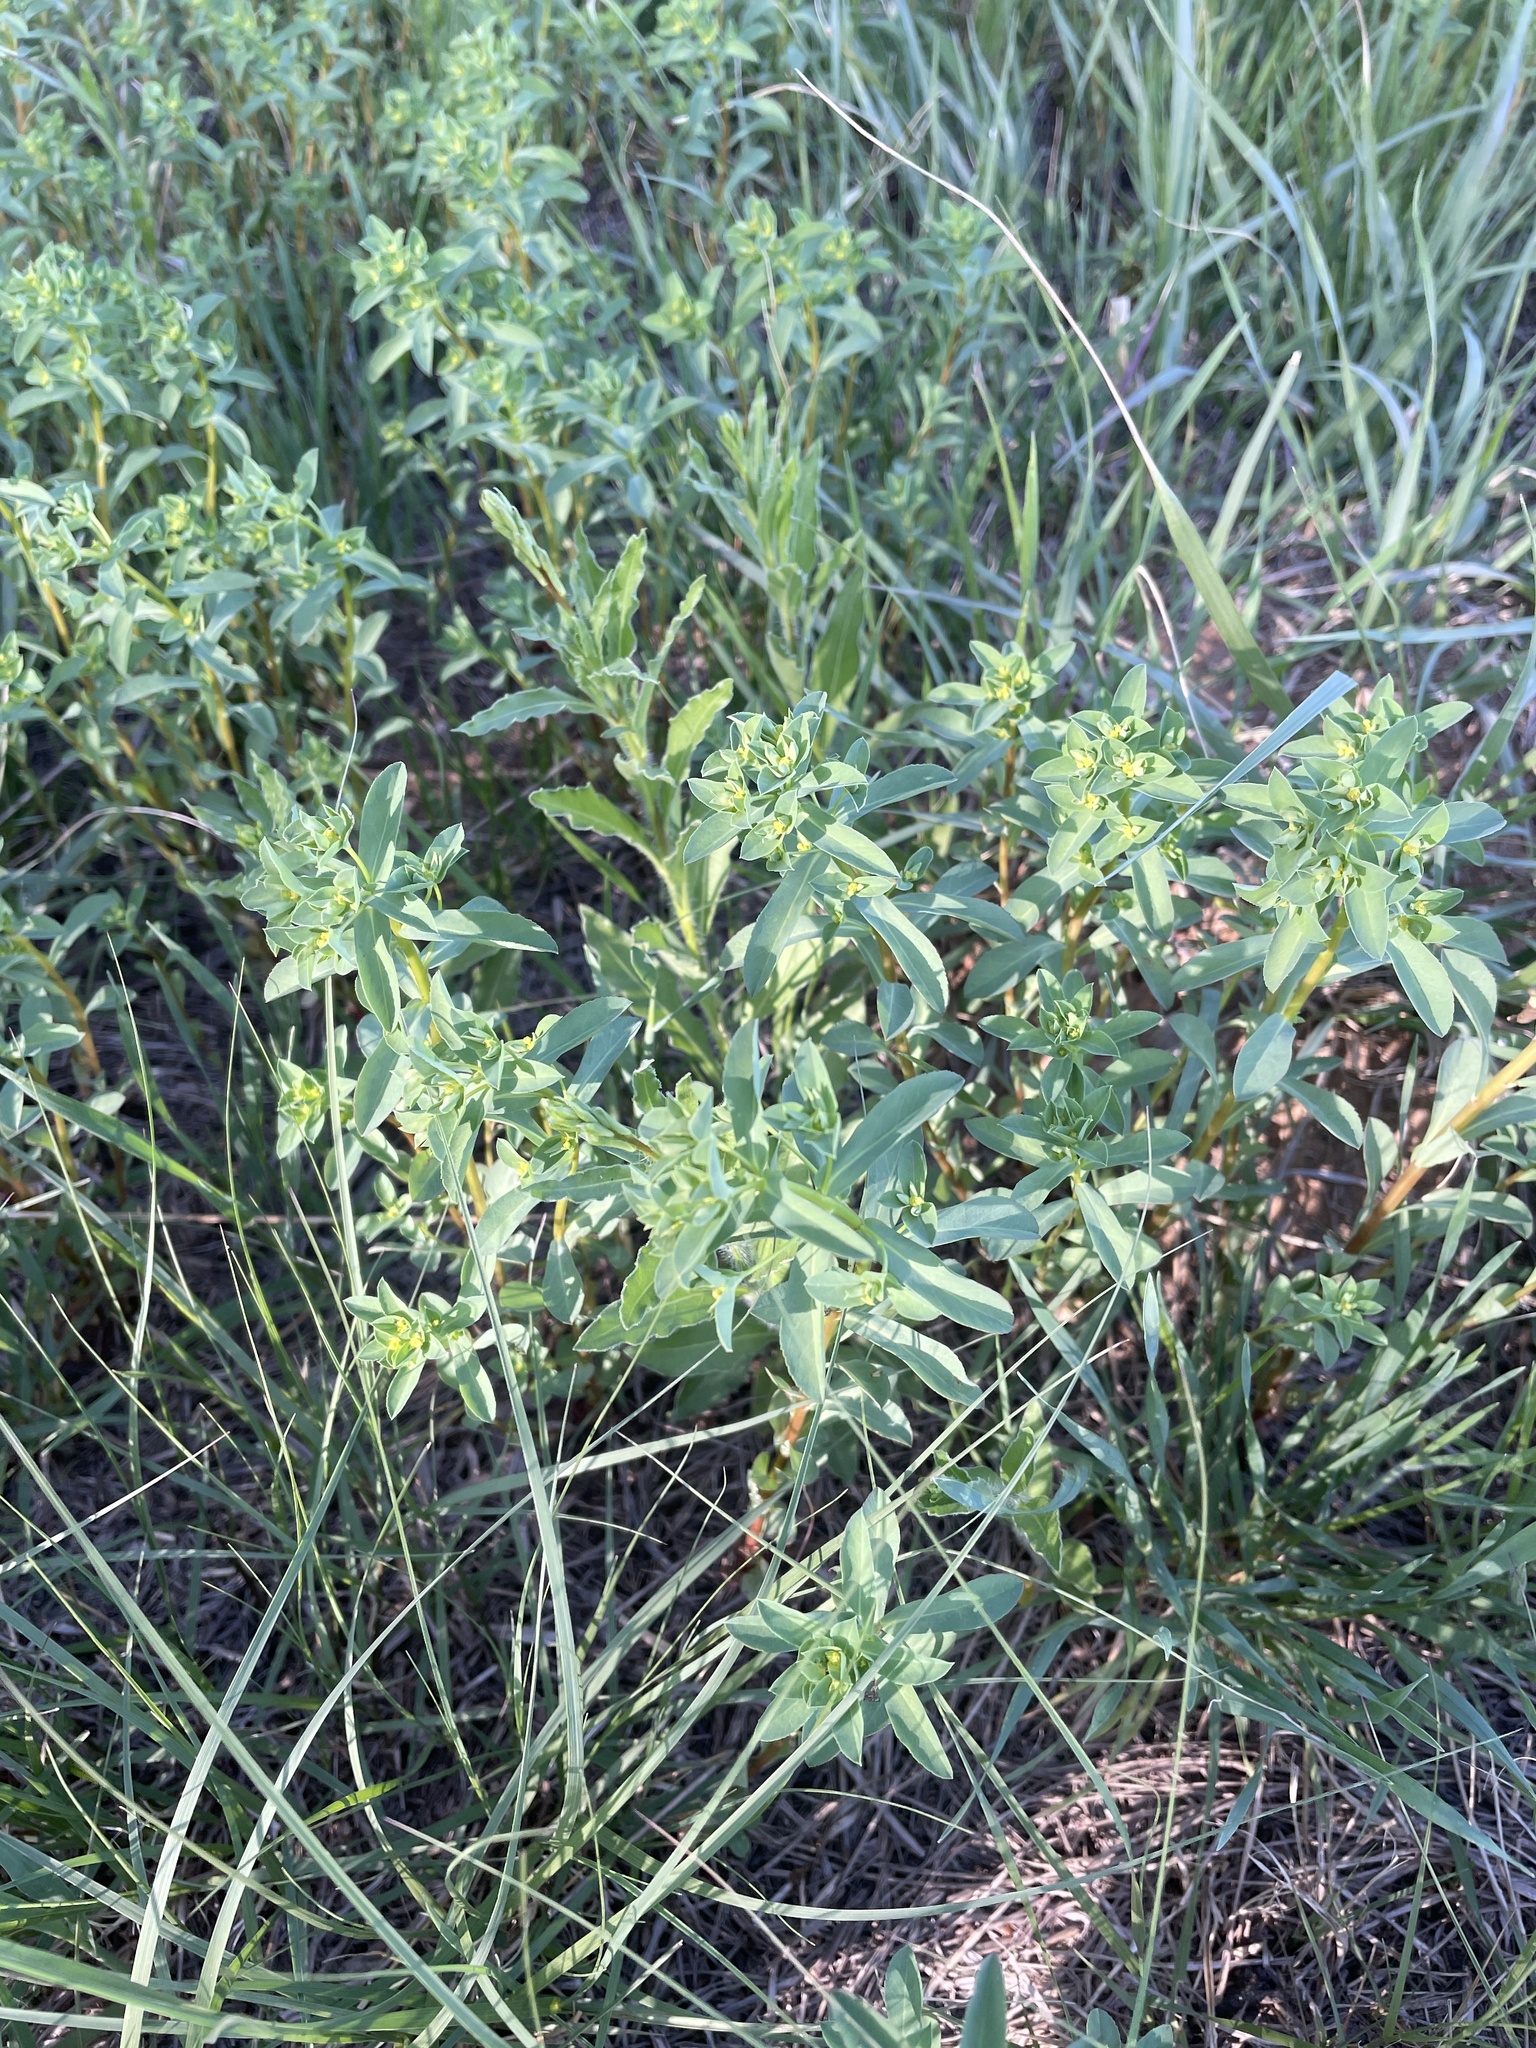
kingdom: Plantae
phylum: Tracheophyta
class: Magnoliopsida
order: Malpighiales
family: Euphorbiaceae
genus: Euphorbia
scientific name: Euphorbia spathulata
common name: Blunt spurge
